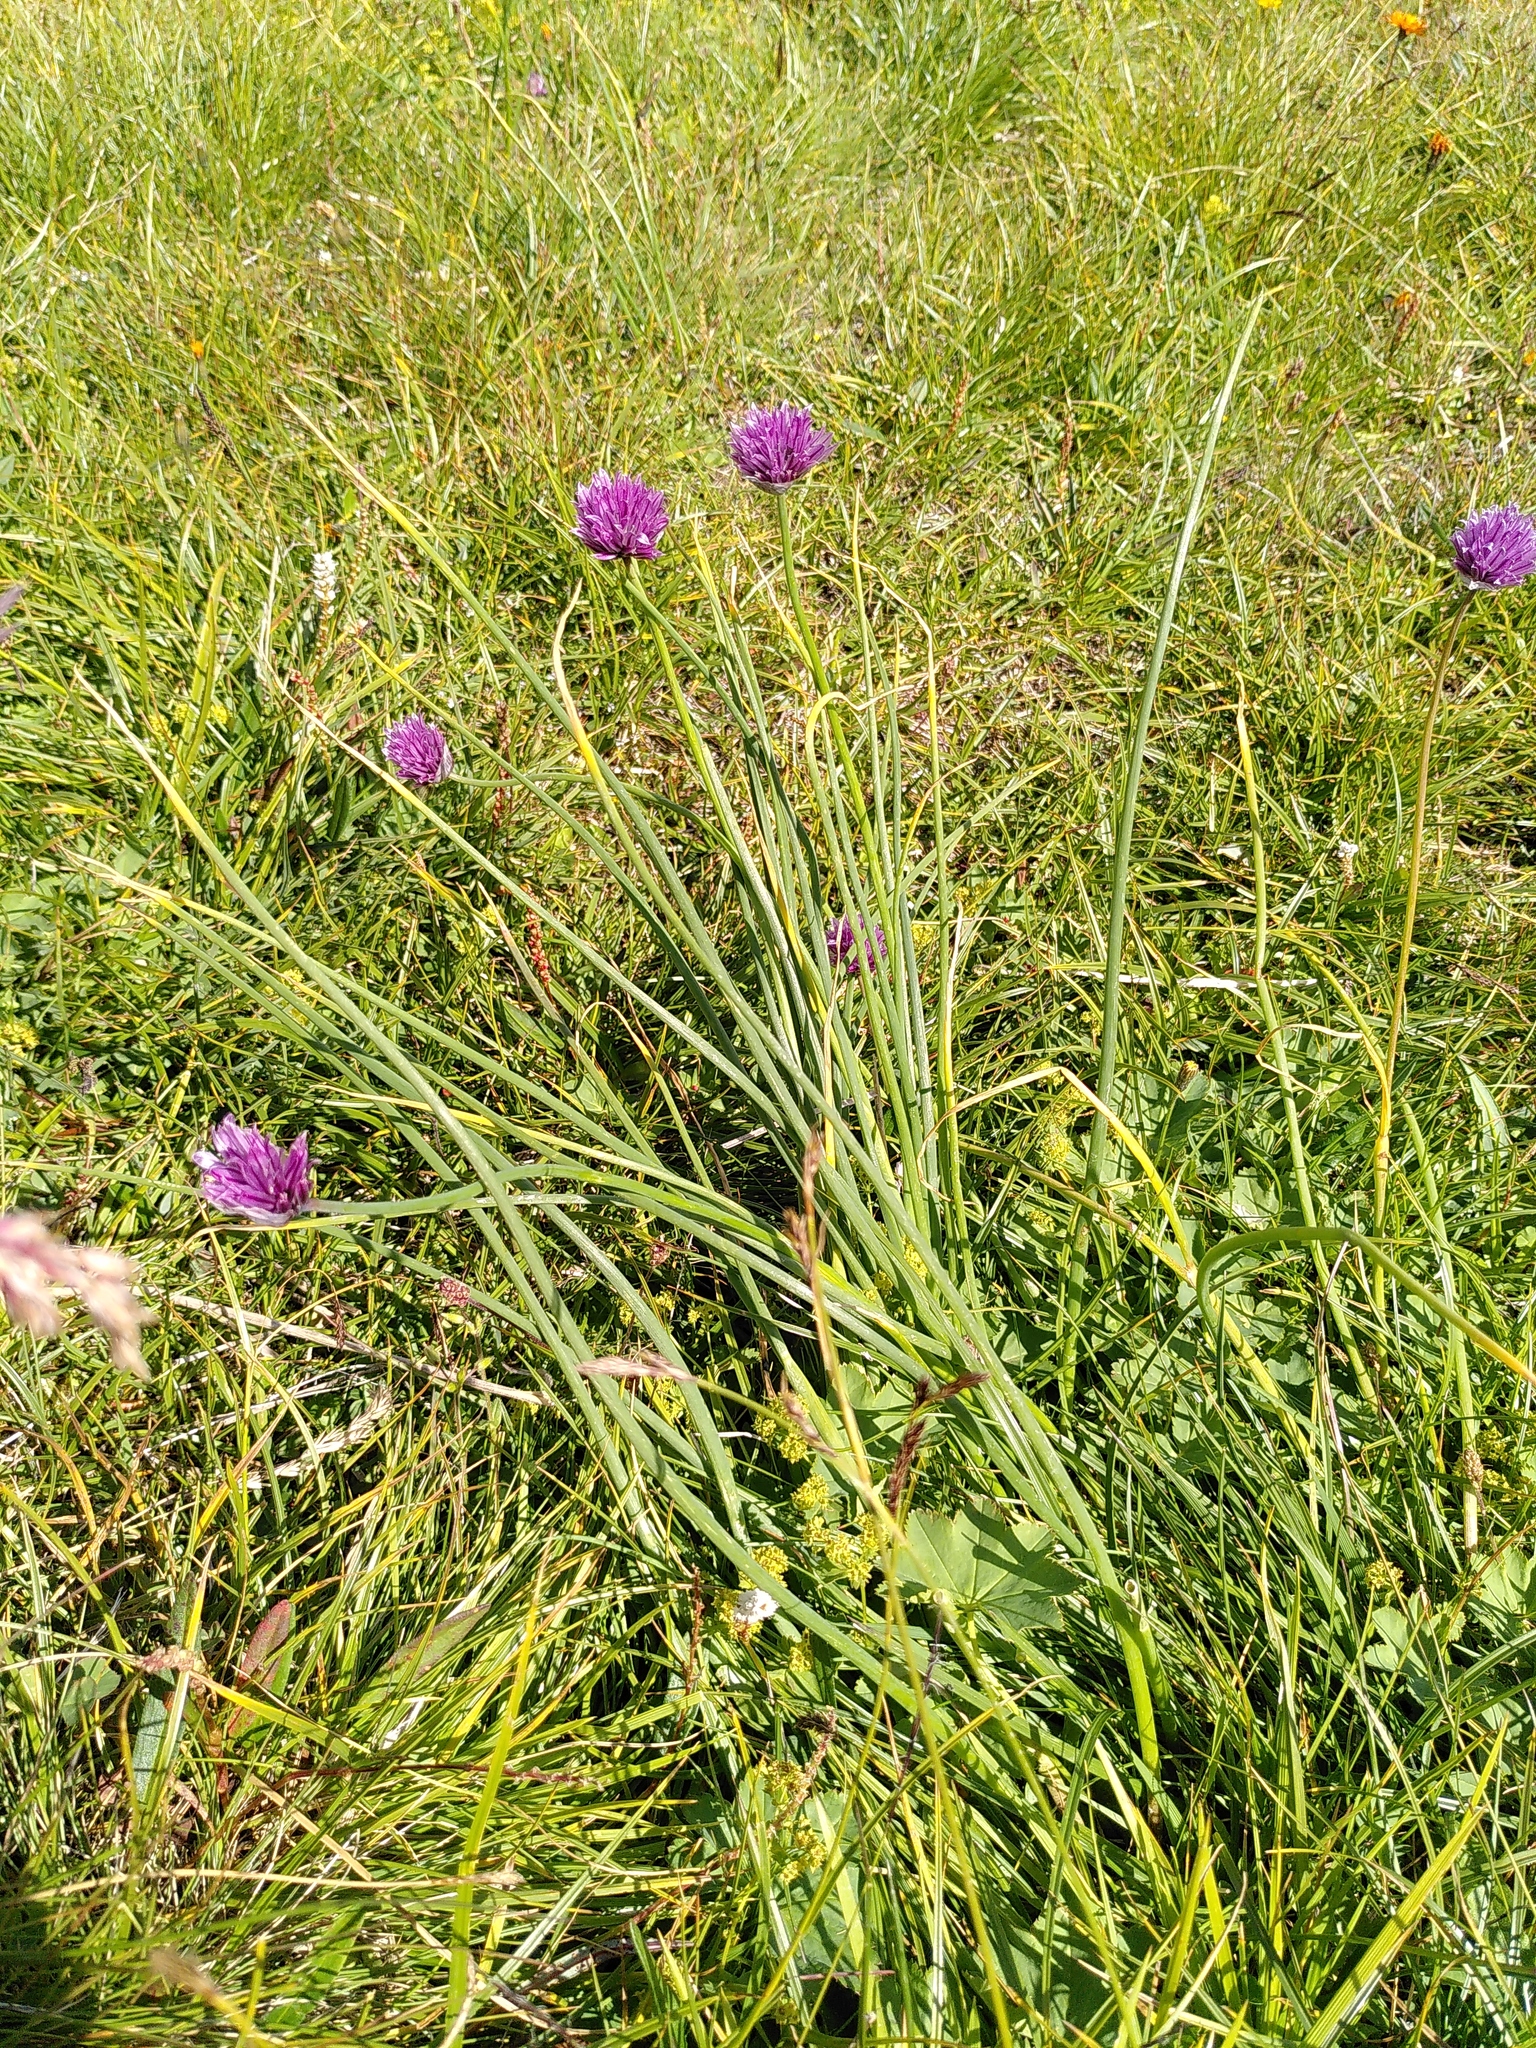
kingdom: Plantae
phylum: Tracheophyta
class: Liliopsida
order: Asparagales
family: Amaryllidaceae
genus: Allium
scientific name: Allium schoenoprasum
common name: Chives
